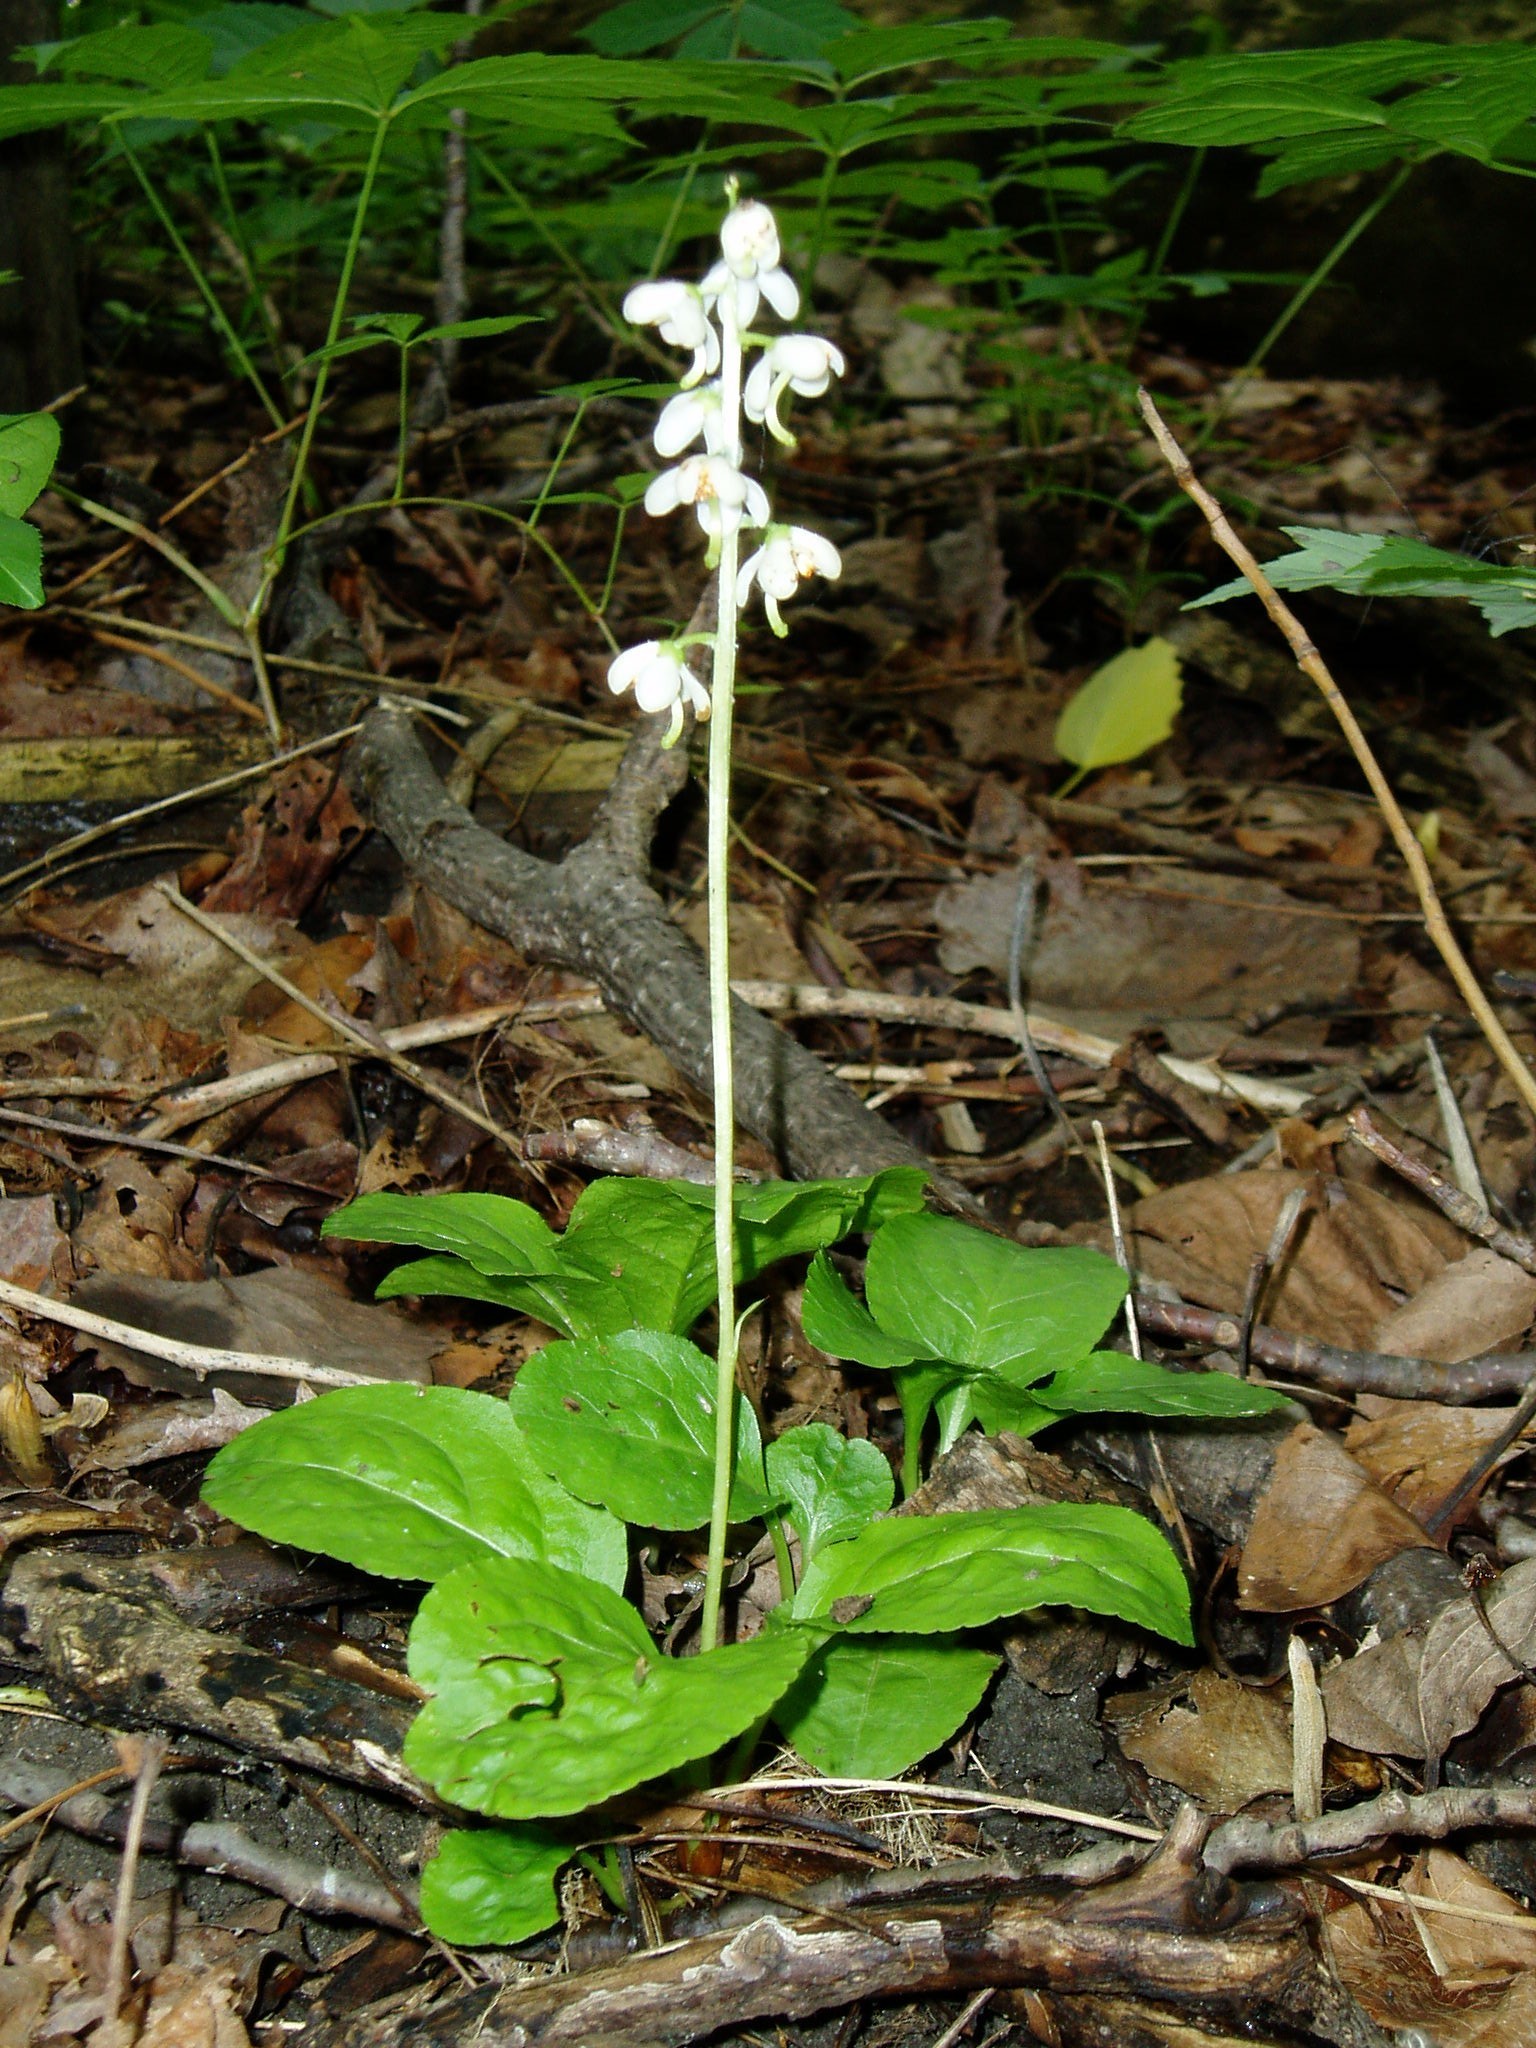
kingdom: Plantae
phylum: Tracheophyta
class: Magnoliopsida
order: Ericales
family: Ericaceae
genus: Pyrola
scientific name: Pyrola elliptica
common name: Shinleaf
